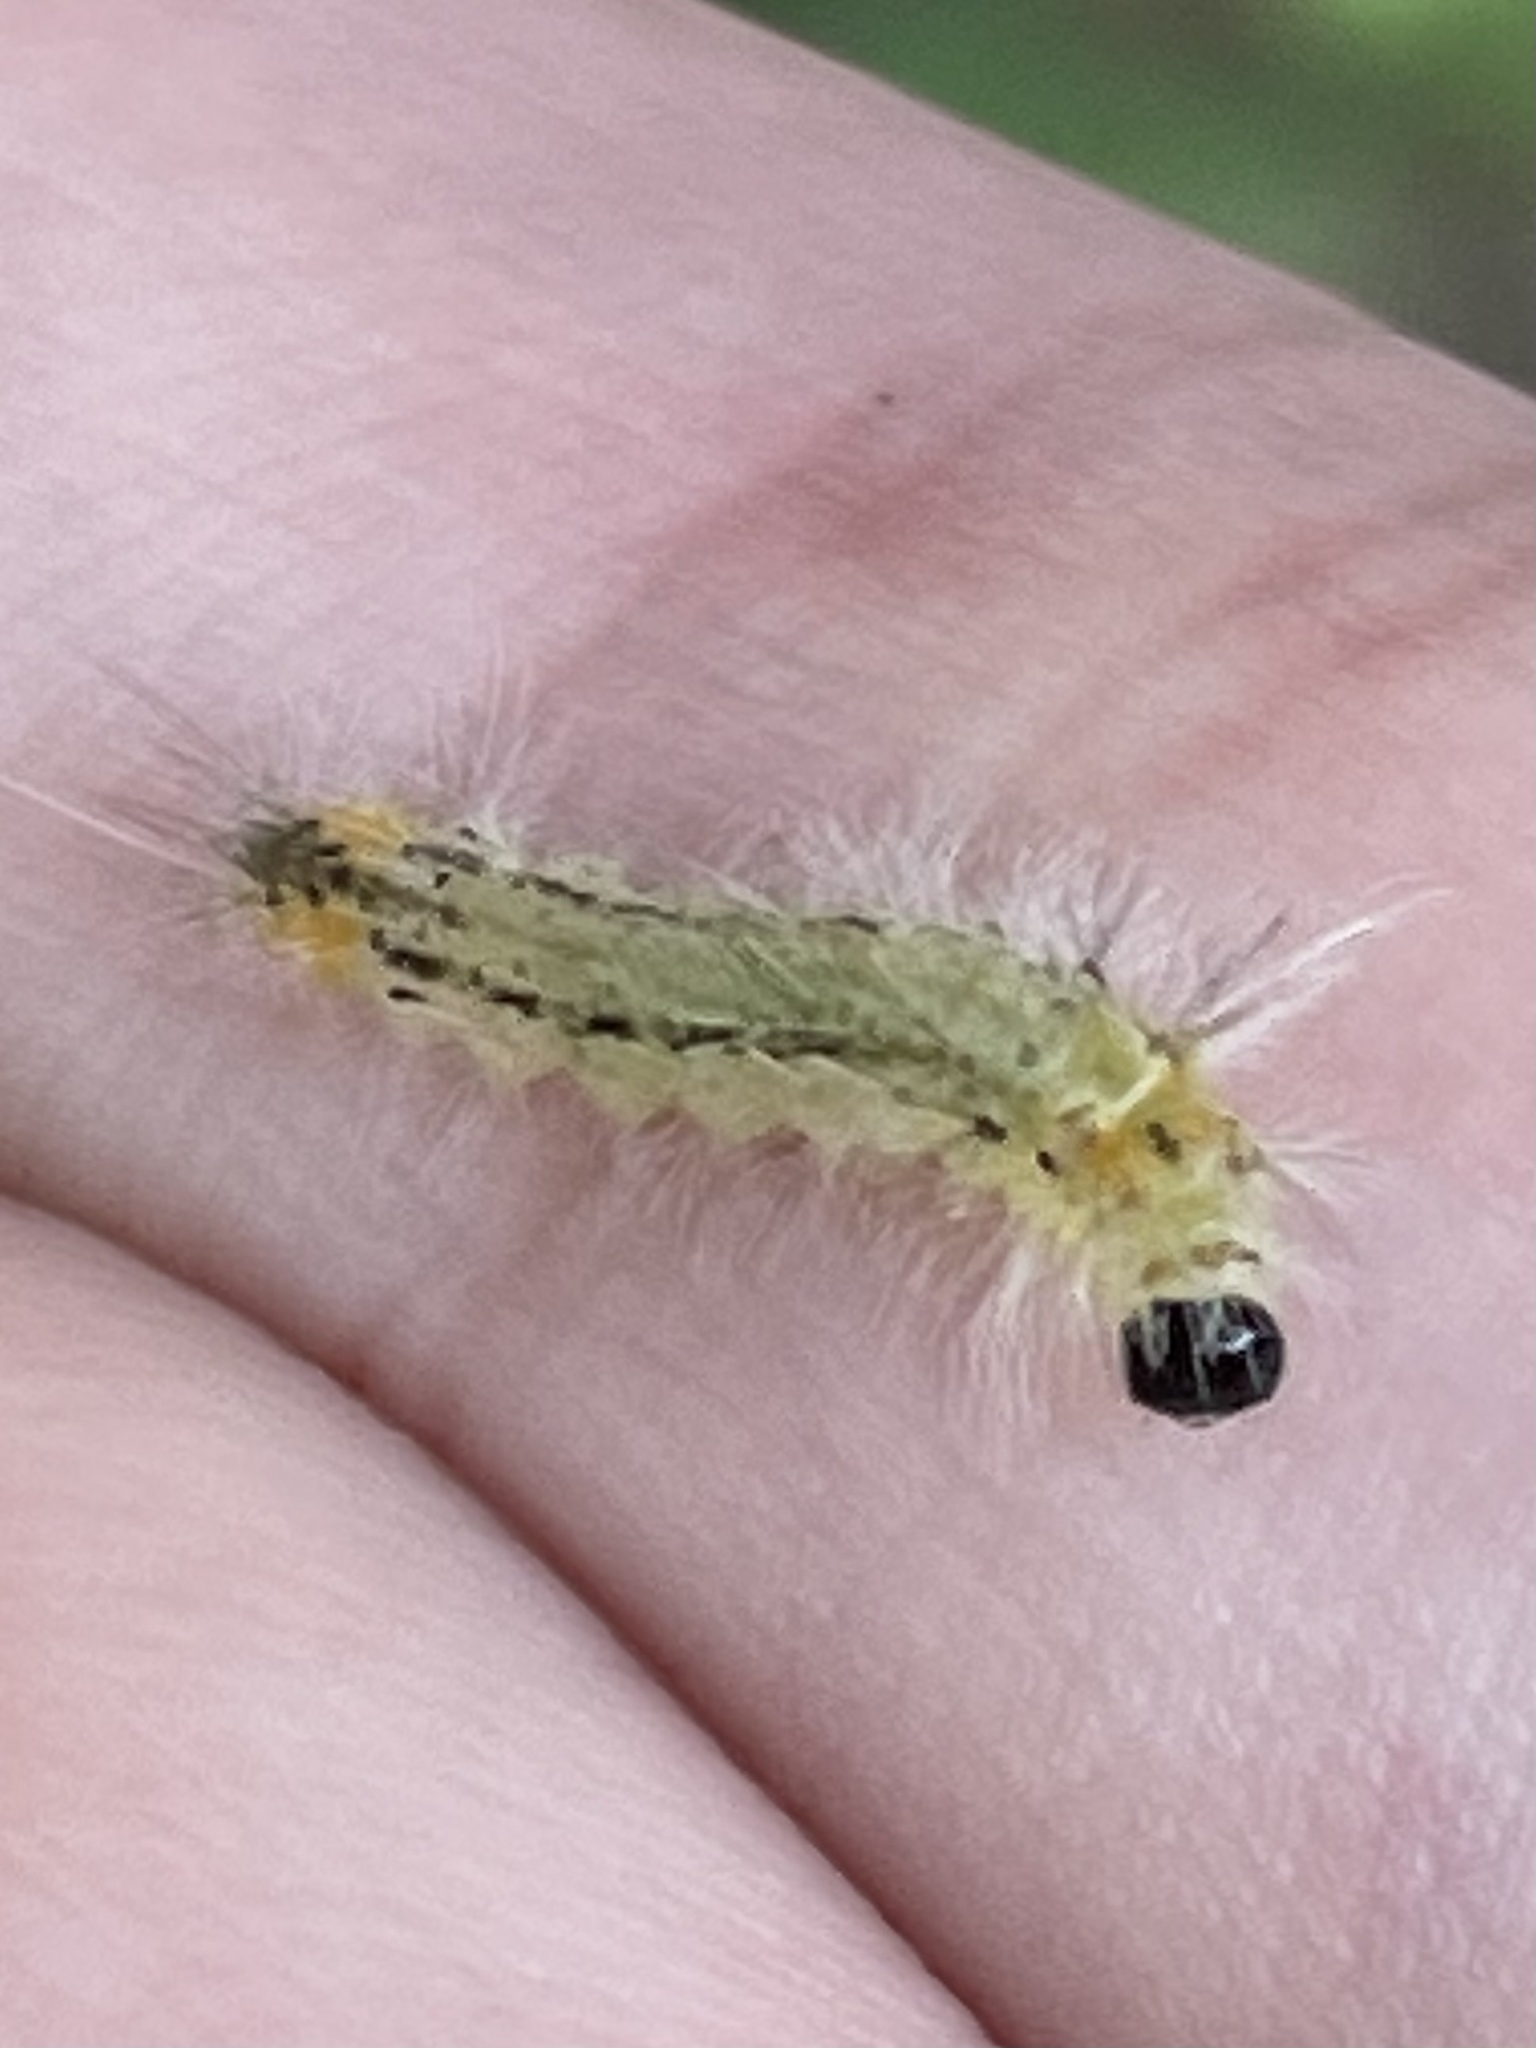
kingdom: Animalia
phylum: Arthropoda
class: Insecta
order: Lepidoptera
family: Erebidae
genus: Halysidota
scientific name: Halysidota tessellaris
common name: Banded tussock moth
